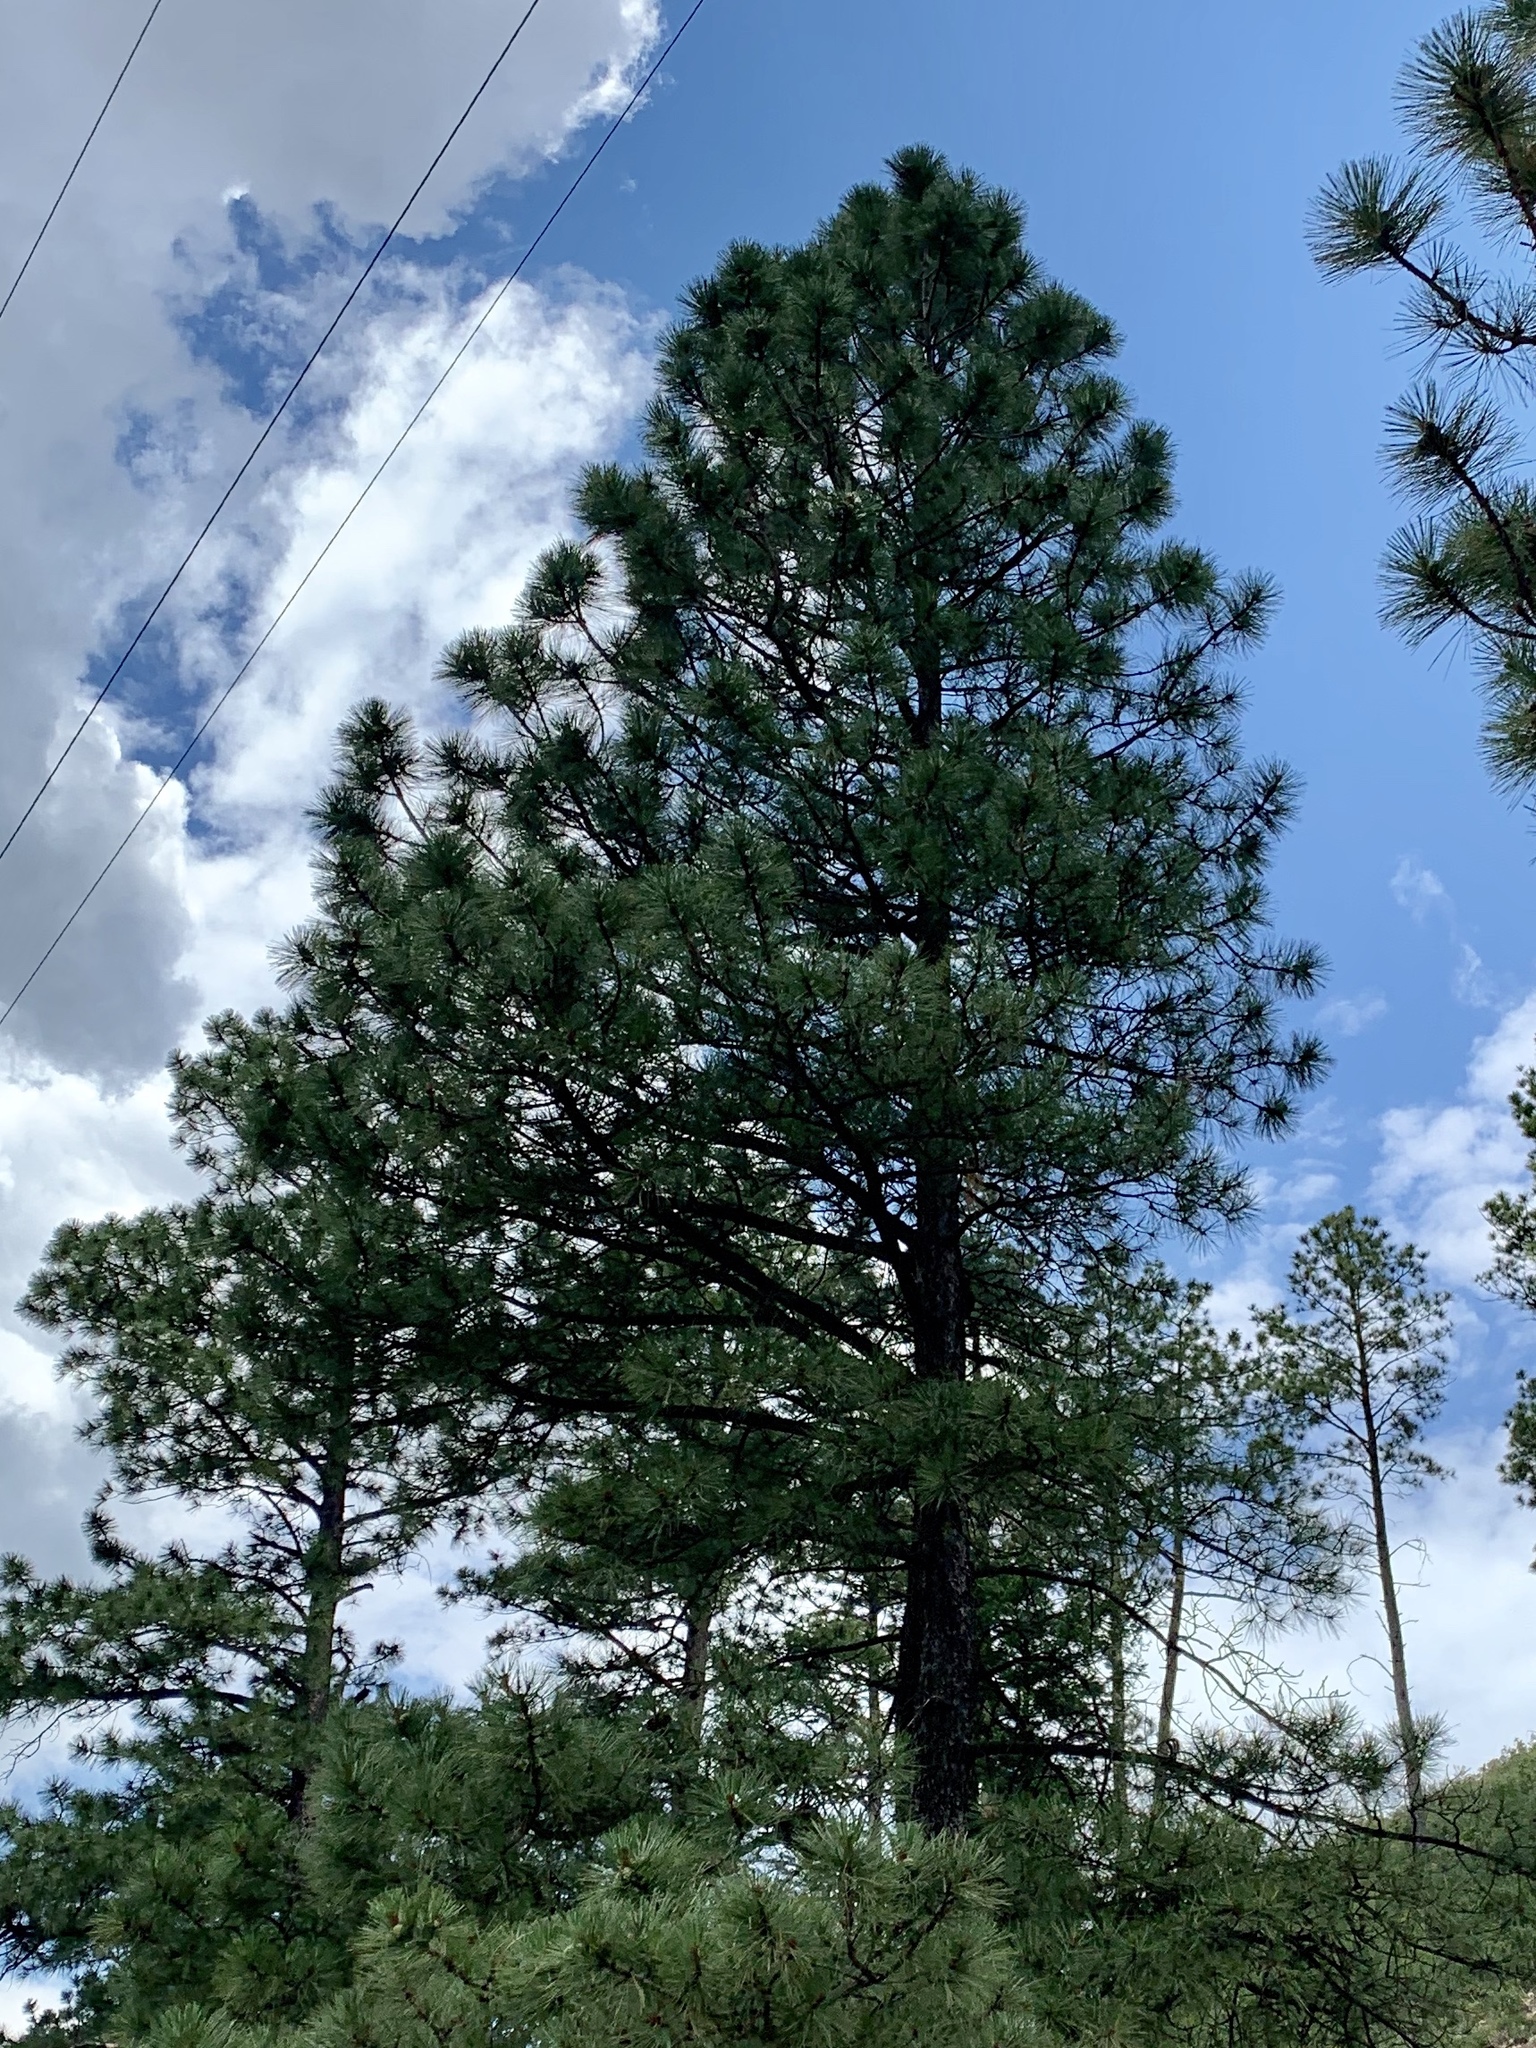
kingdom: Plantae
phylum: Tracheophyta
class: Pinopsida
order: Pinales
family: Pinaceae
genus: Pinus
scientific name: Pinus ponderosa
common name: Western yellow-pine
